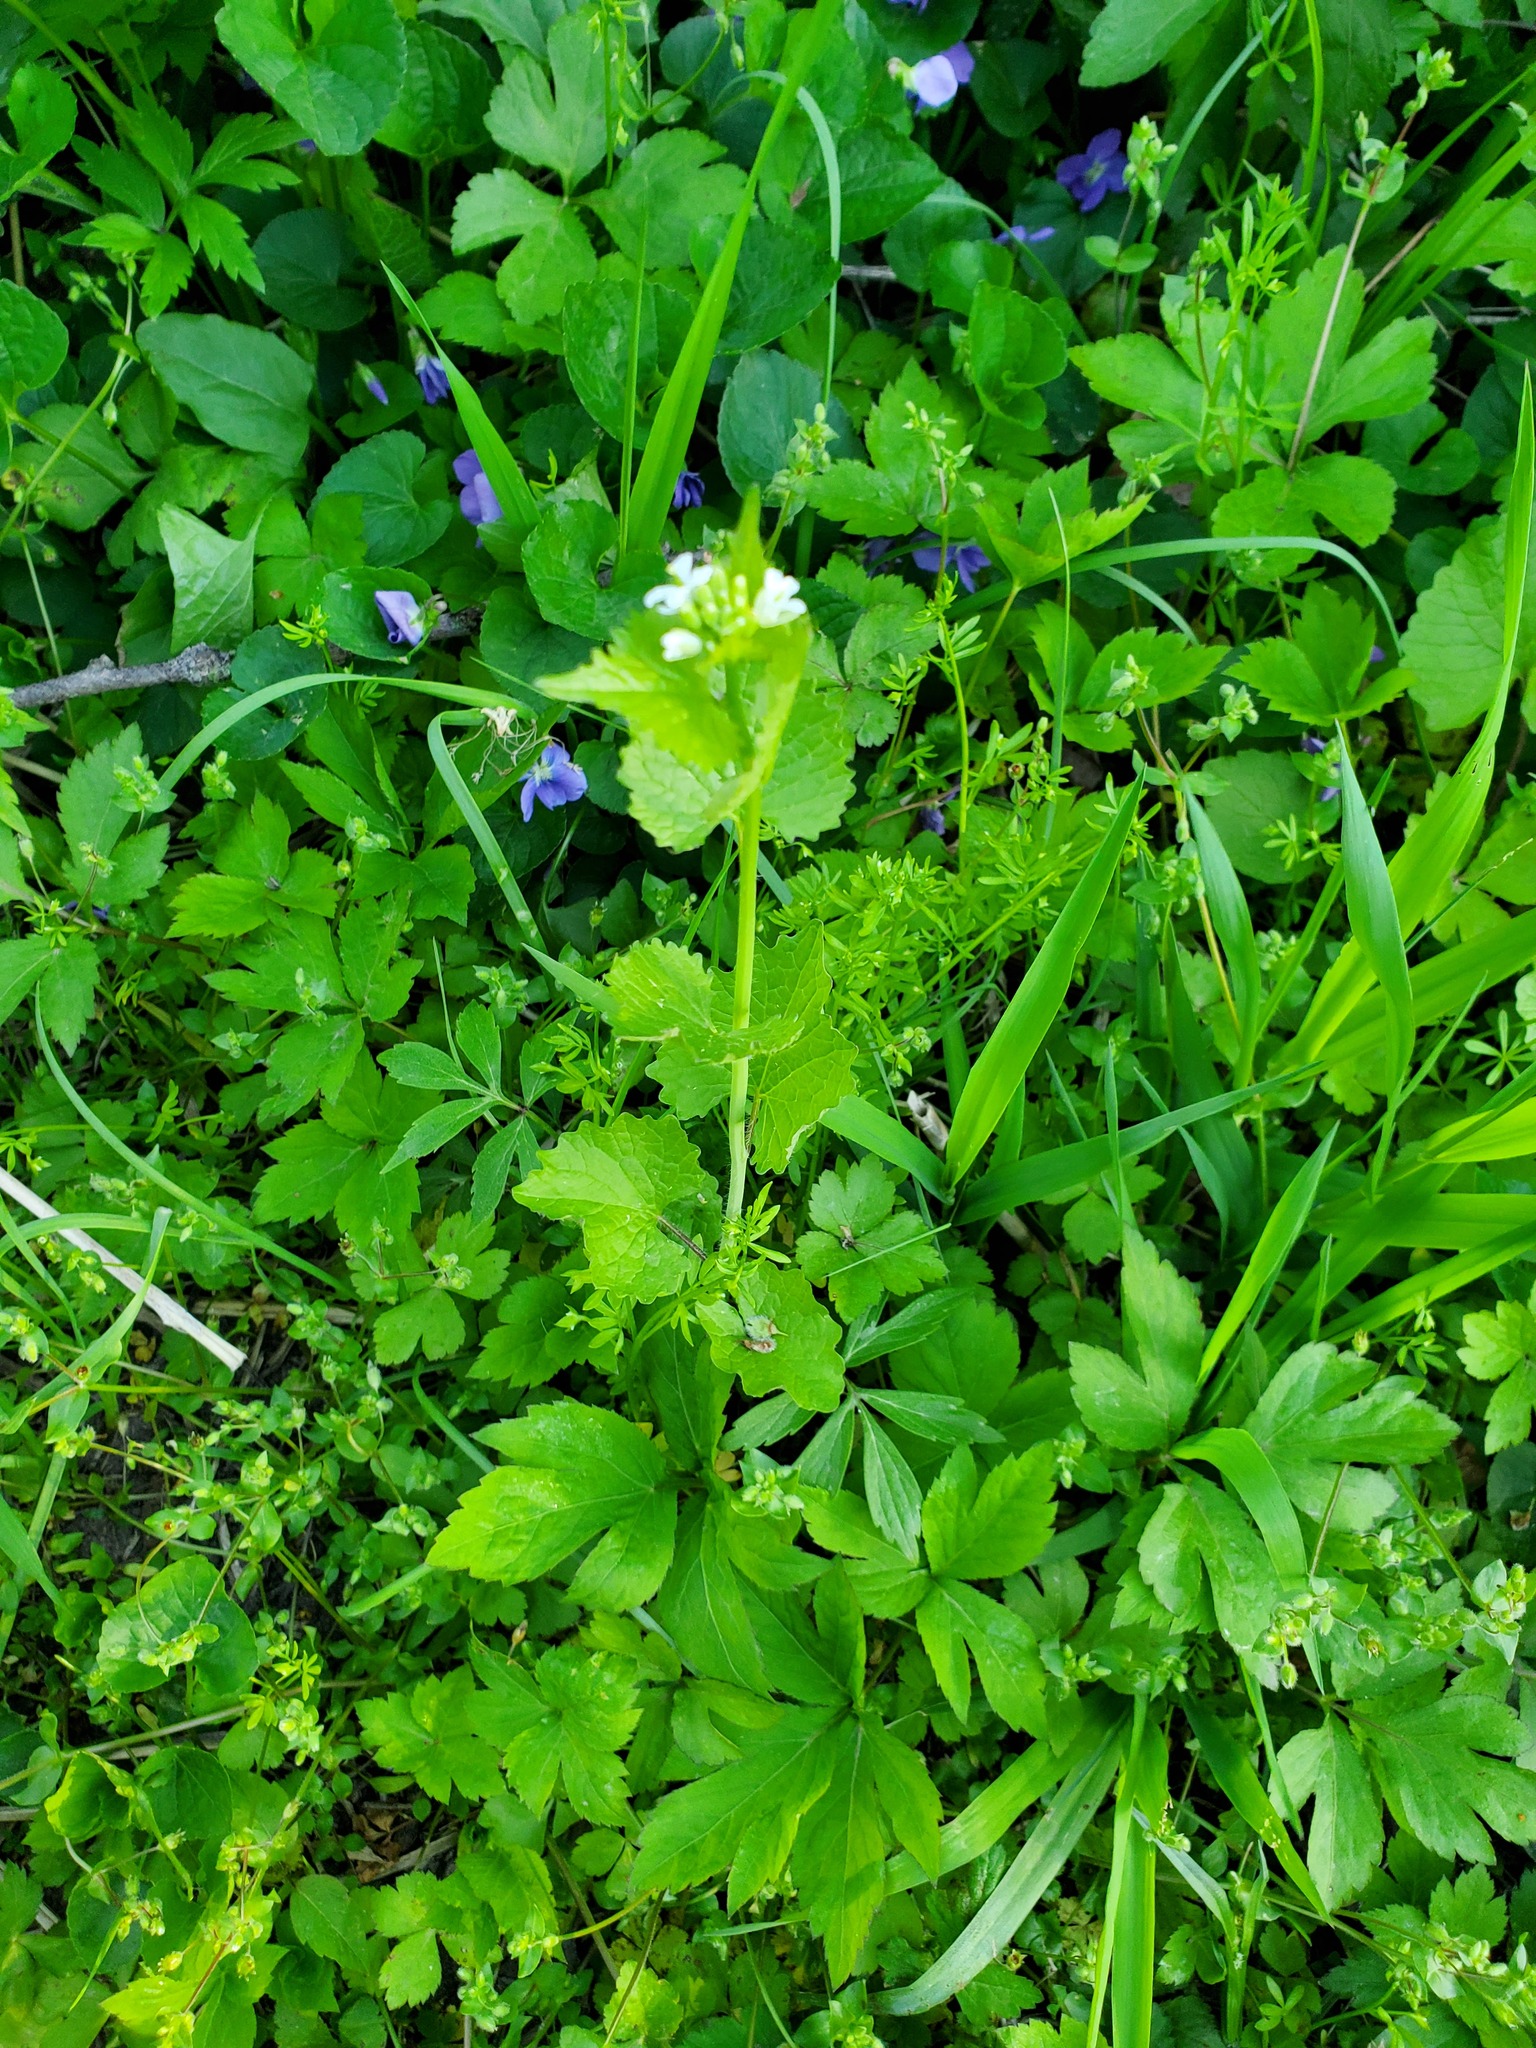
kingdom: Plantae
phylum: Tracheophyta
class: Magnoliopsida
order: Brassicales
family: Brassicaceae
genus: Alliaria
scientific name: Alliaria petiolata
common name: Garlic mustard
